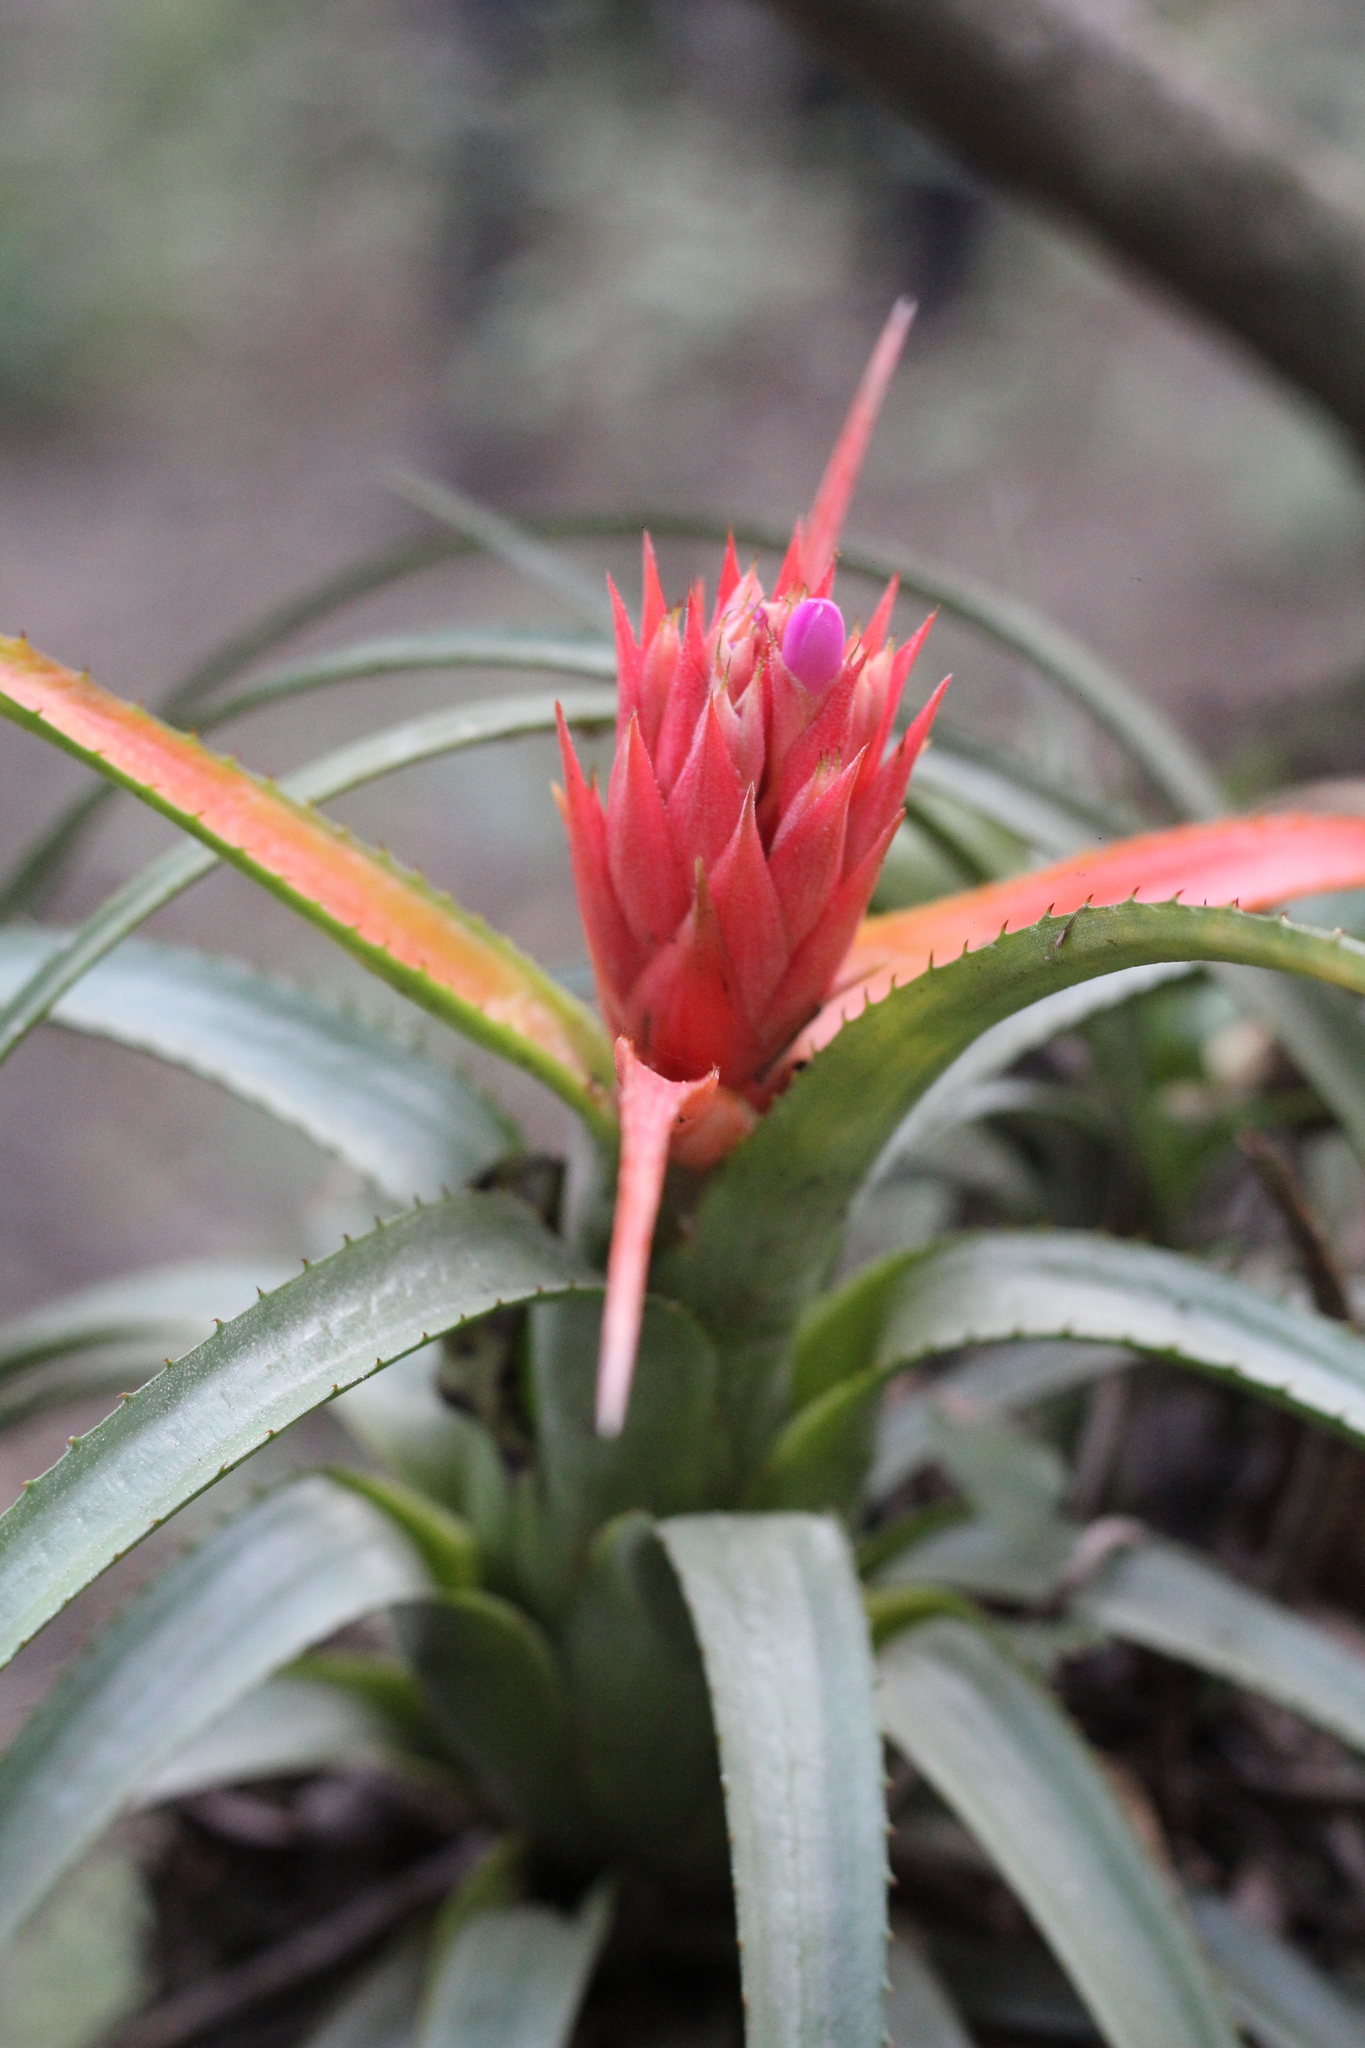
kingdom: Plantae
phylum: Tracheophyta
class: Liliopsida
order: Poales
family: Bromeliaceae
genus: Aechmea
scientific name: Aechmea recurvata
